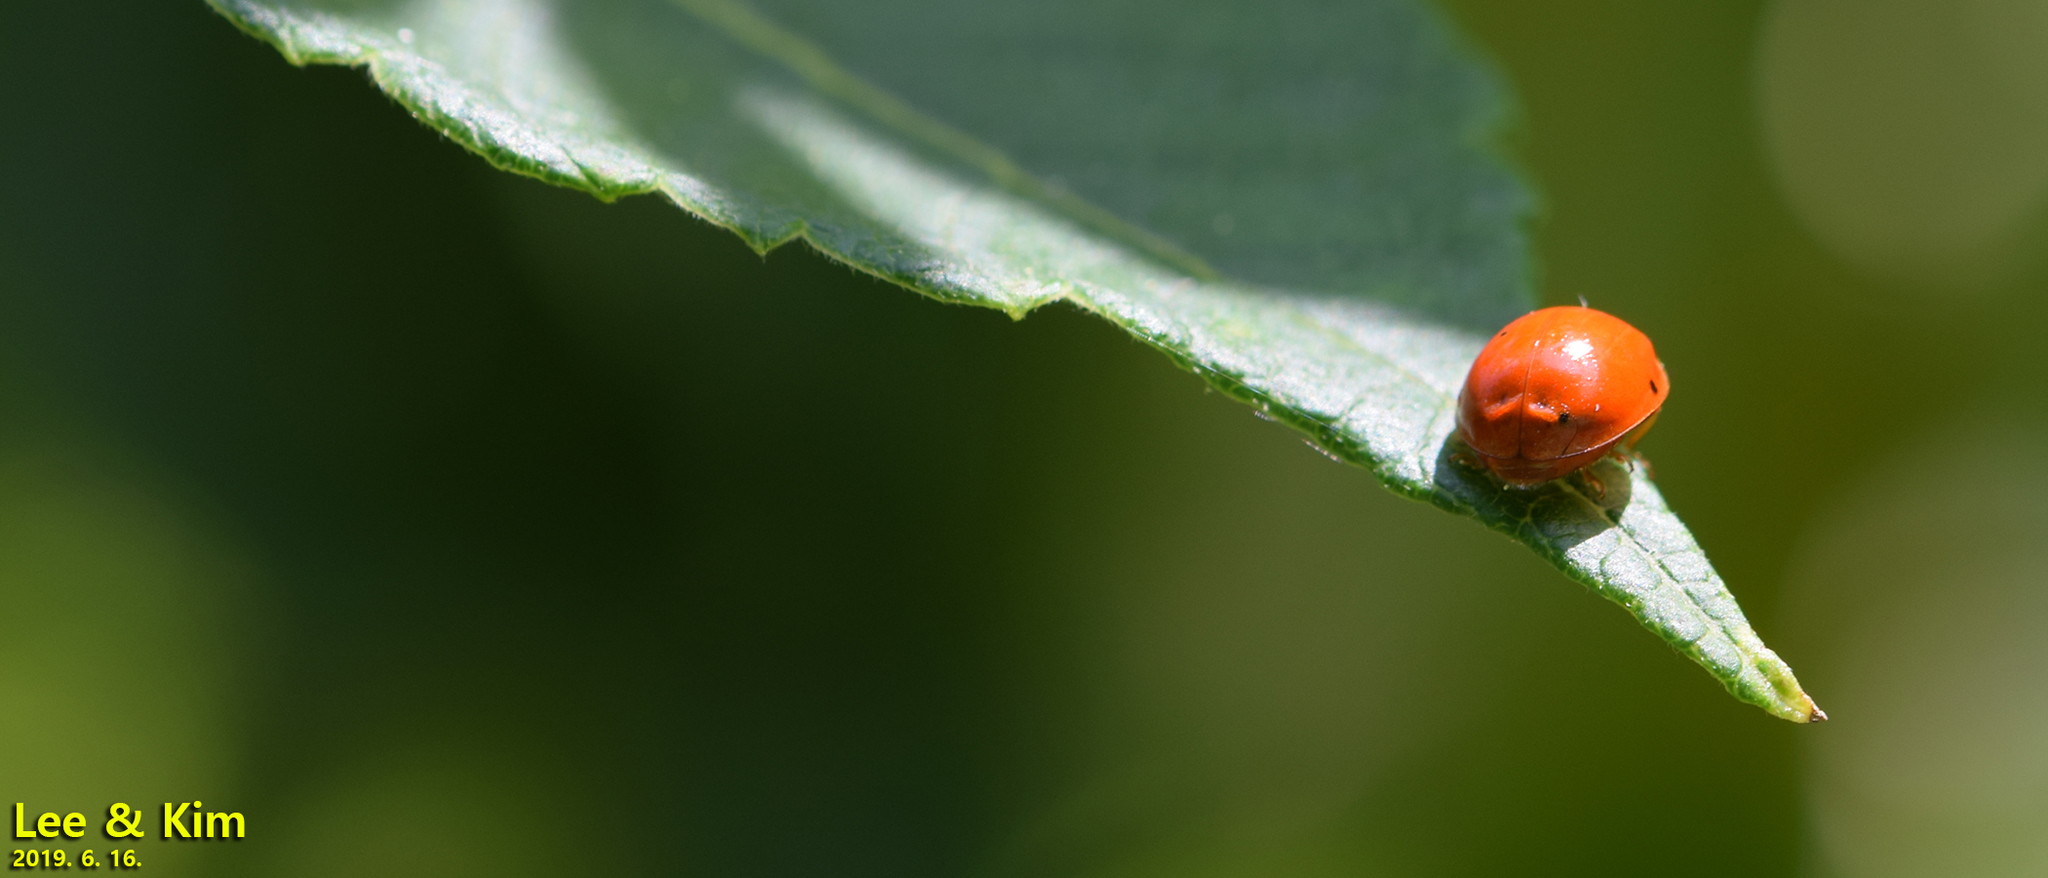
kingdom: Animalia
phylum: Arthropoda
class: Insecta
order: Coleoptera
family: Coccinellidae
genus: Harmonia
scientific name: Harmonia axyridis
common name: Harlequin ladybird
